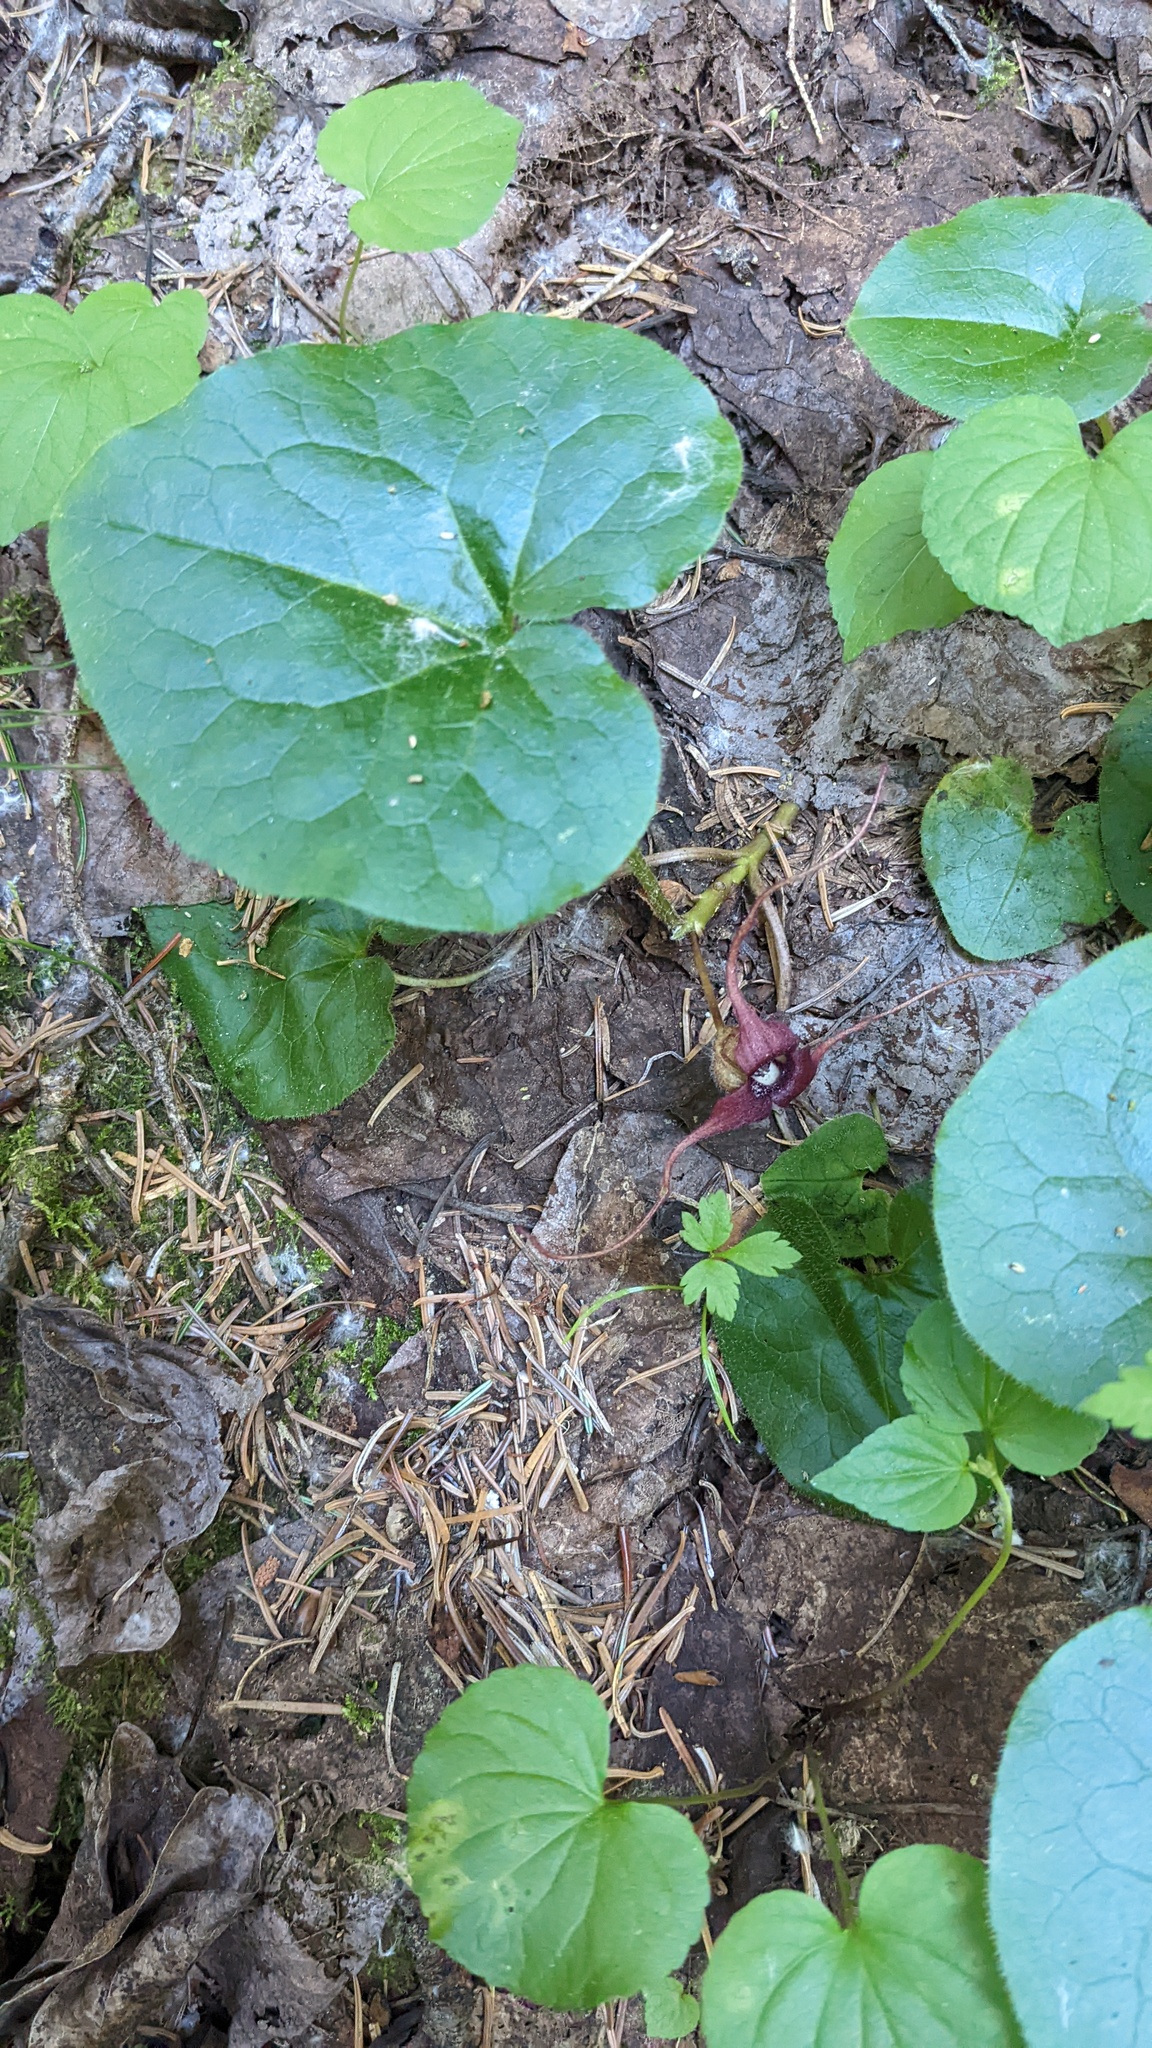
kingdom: Plantae
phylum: Tracheophyta
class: Magnoliopsida
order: Piperales
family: Aristolochiaceae
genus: Asarum
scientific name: Asarum caudatum
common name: Wild ginger
